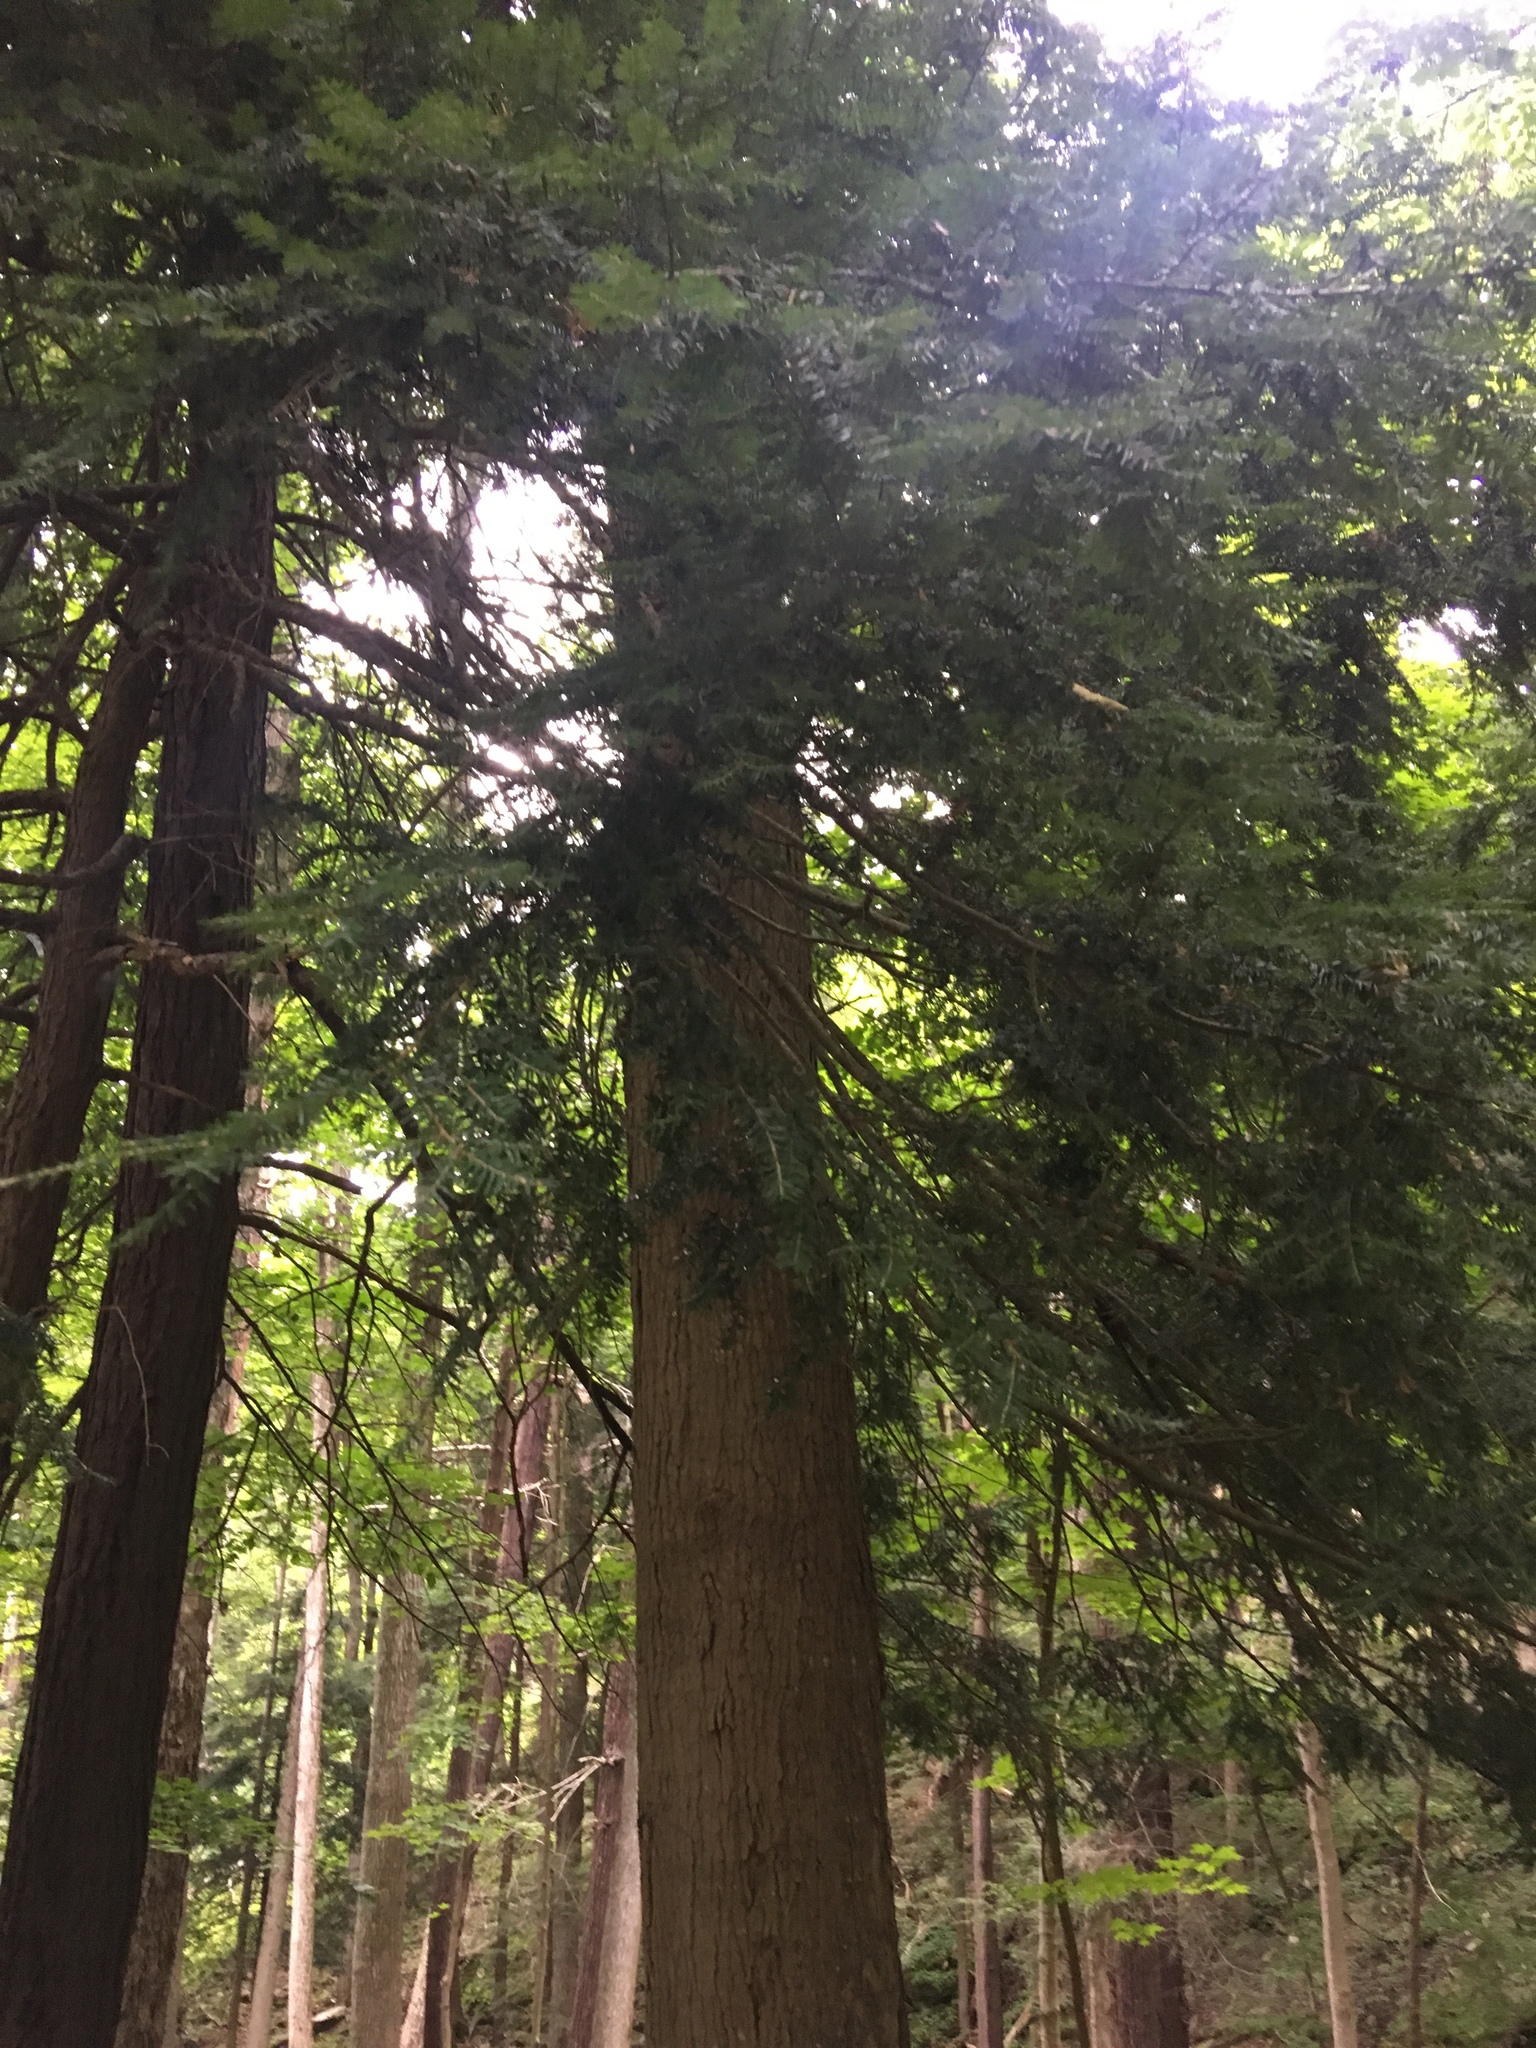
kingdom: Plantae
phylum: Tracheophyta
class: Pinopsida
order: Pinales
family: Pinaceae
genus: Tsuga
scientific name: Tsuga canadensis
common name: Eastern hemlock
